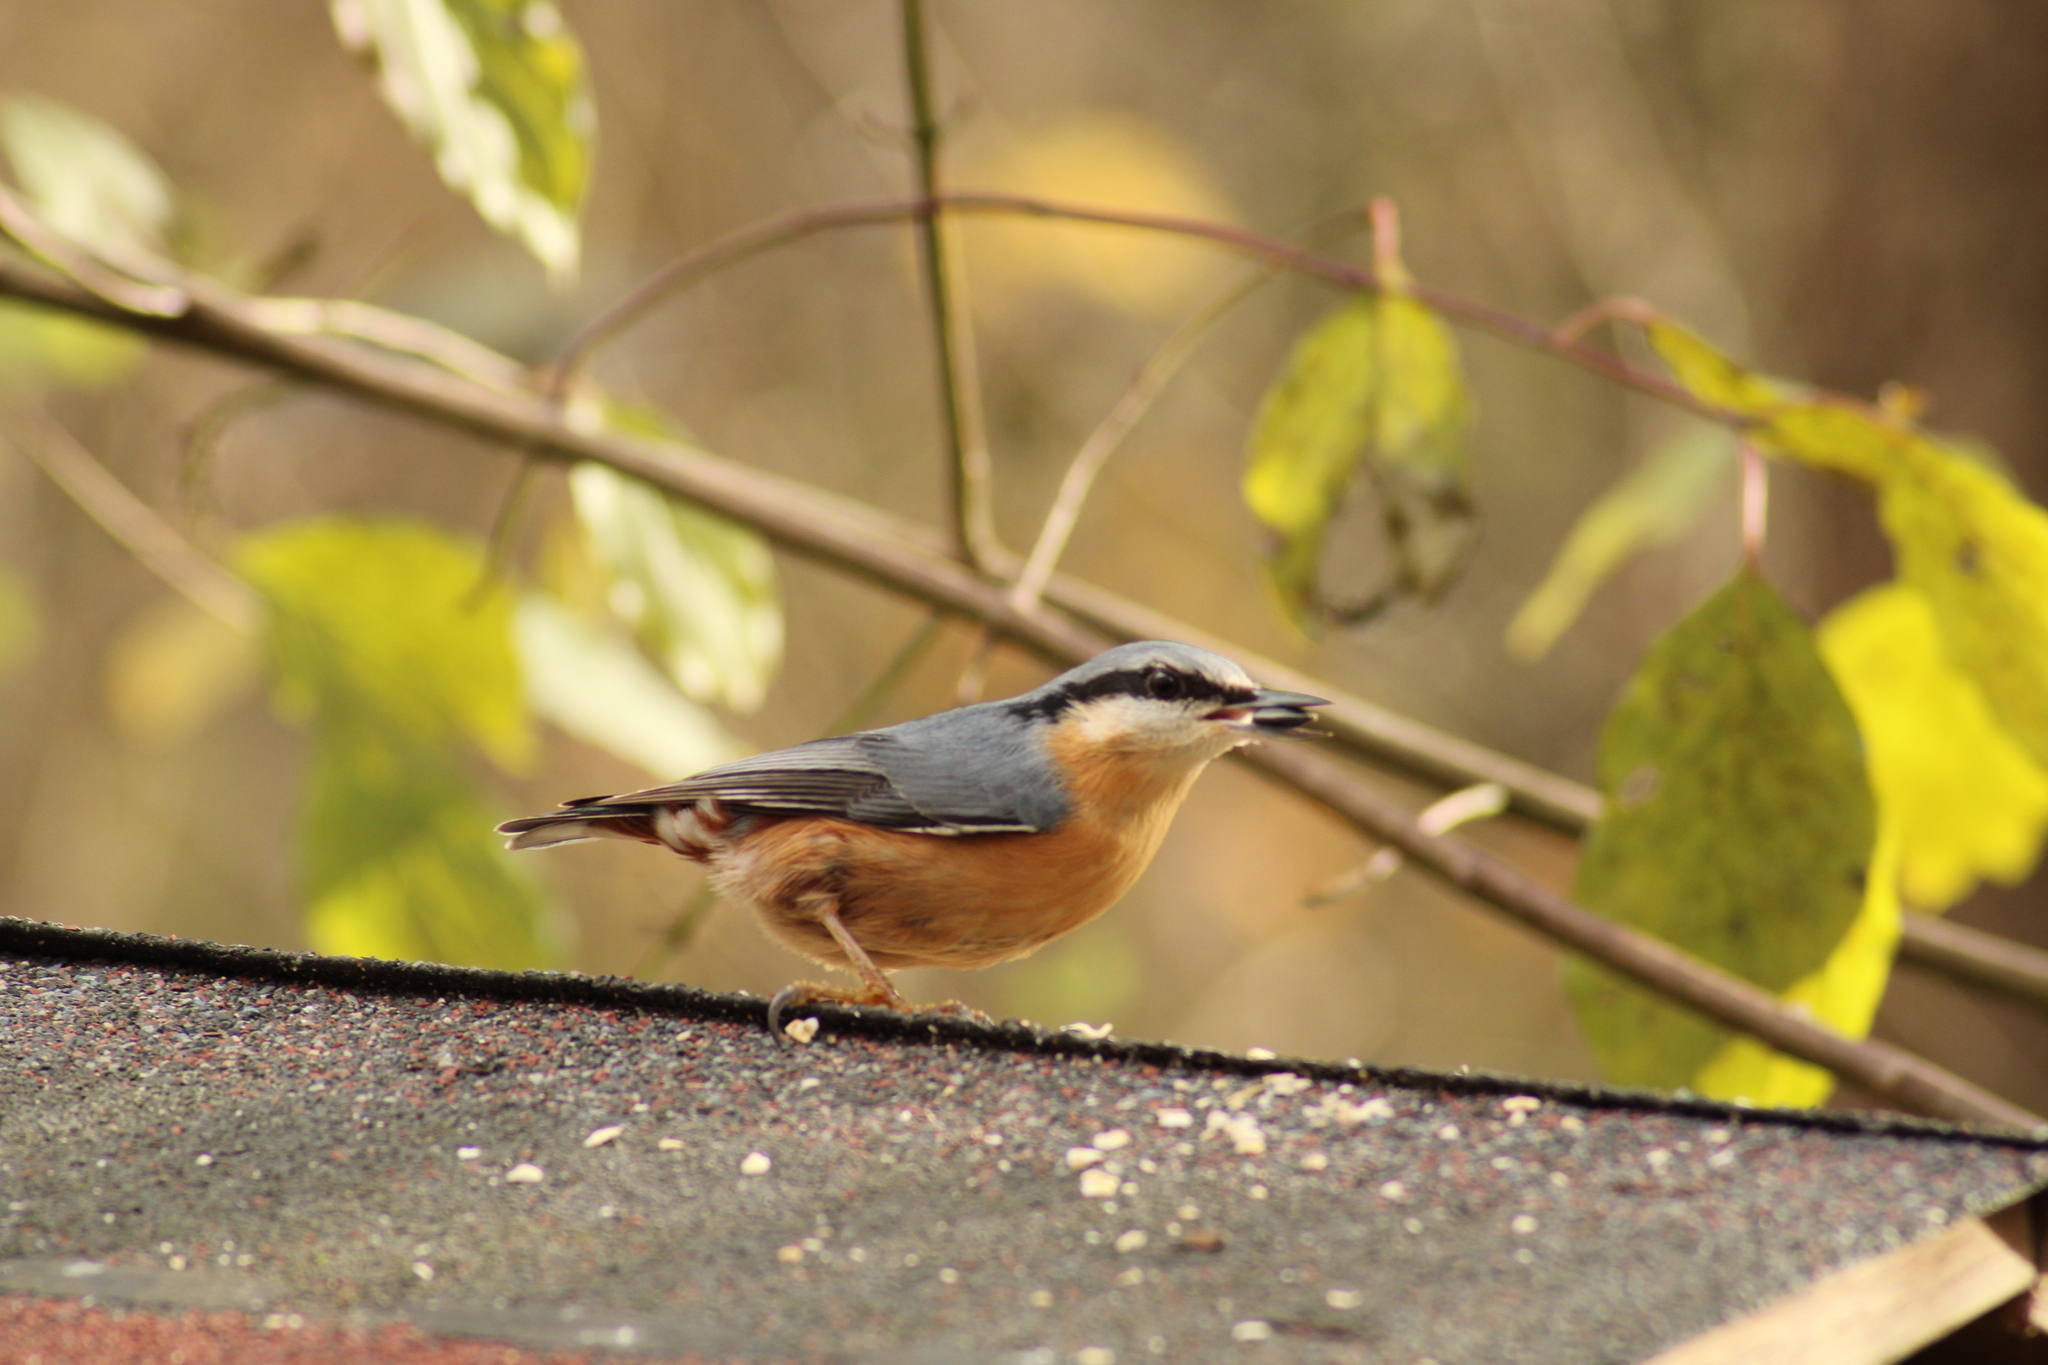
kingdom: Animalia
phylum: Chordata
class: Aves
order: Passeriformes
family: Sittidae
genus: Sitta
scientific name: Sitta europaea
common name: Eurasian nuthatch
